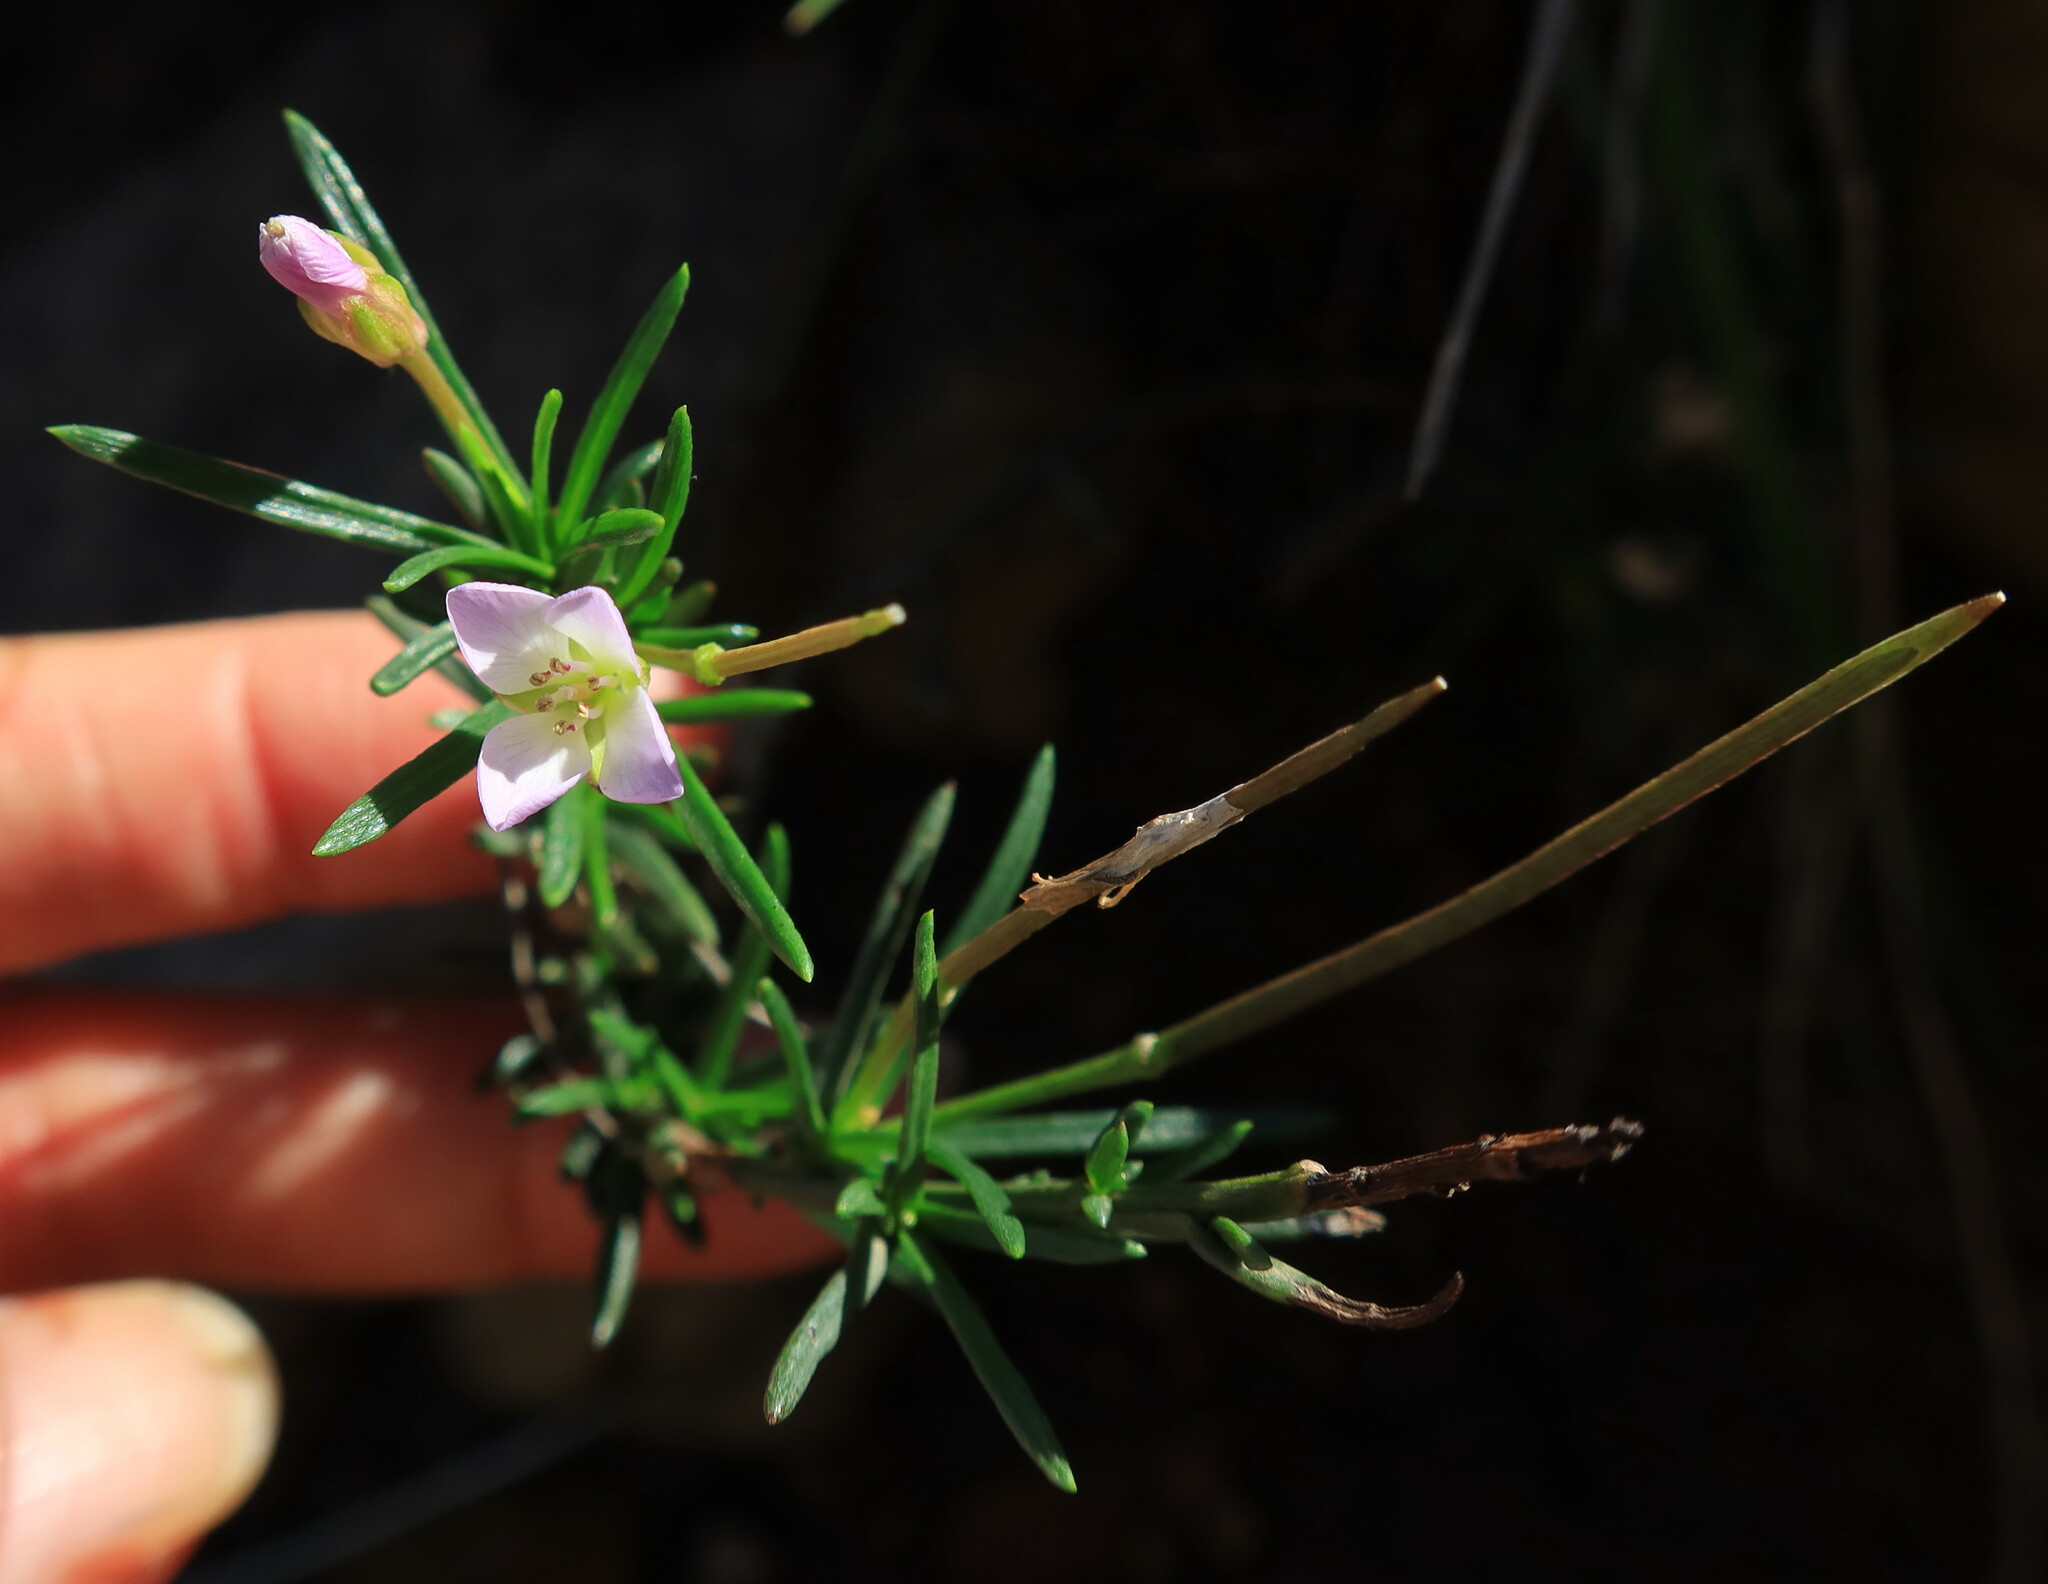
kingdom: Plantae
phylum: Tracheophyta
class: Magnoliopsida
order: Brassicales
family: Brassicaceae
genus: Heliophila
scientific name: Heliophila scoparia
